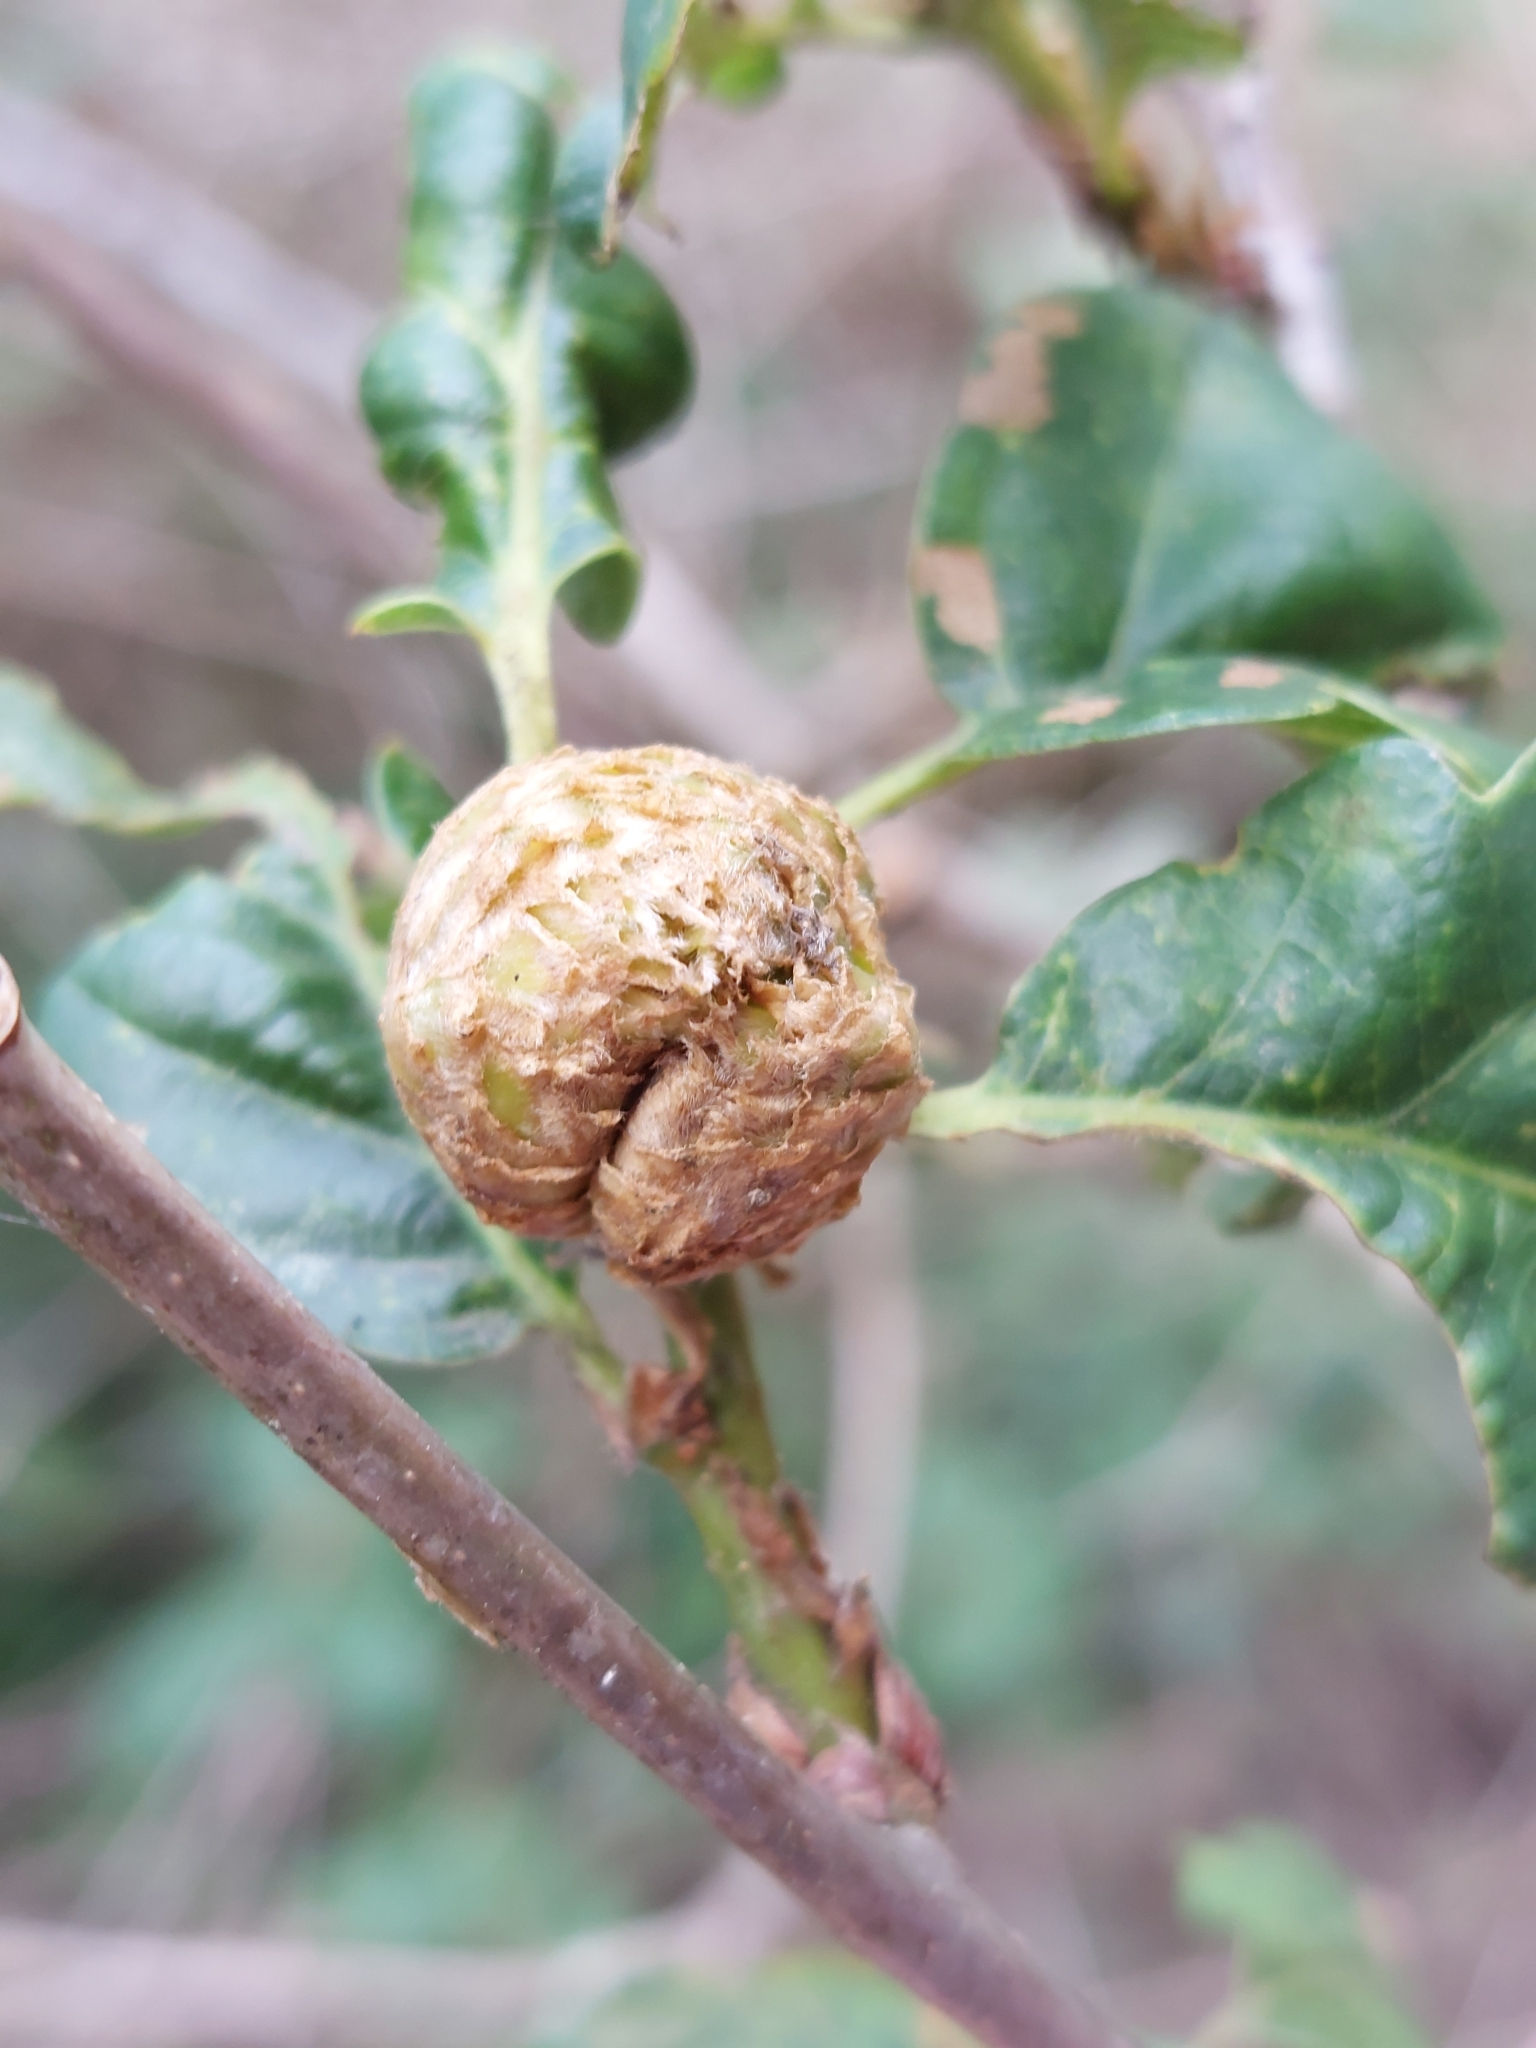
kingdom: Animalia
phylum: Arthropoda
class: Insecta
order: Hymenoptera
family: Cynipidae
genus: Andricus
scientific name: Andricus foecundatrix
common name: Artichoke gall
